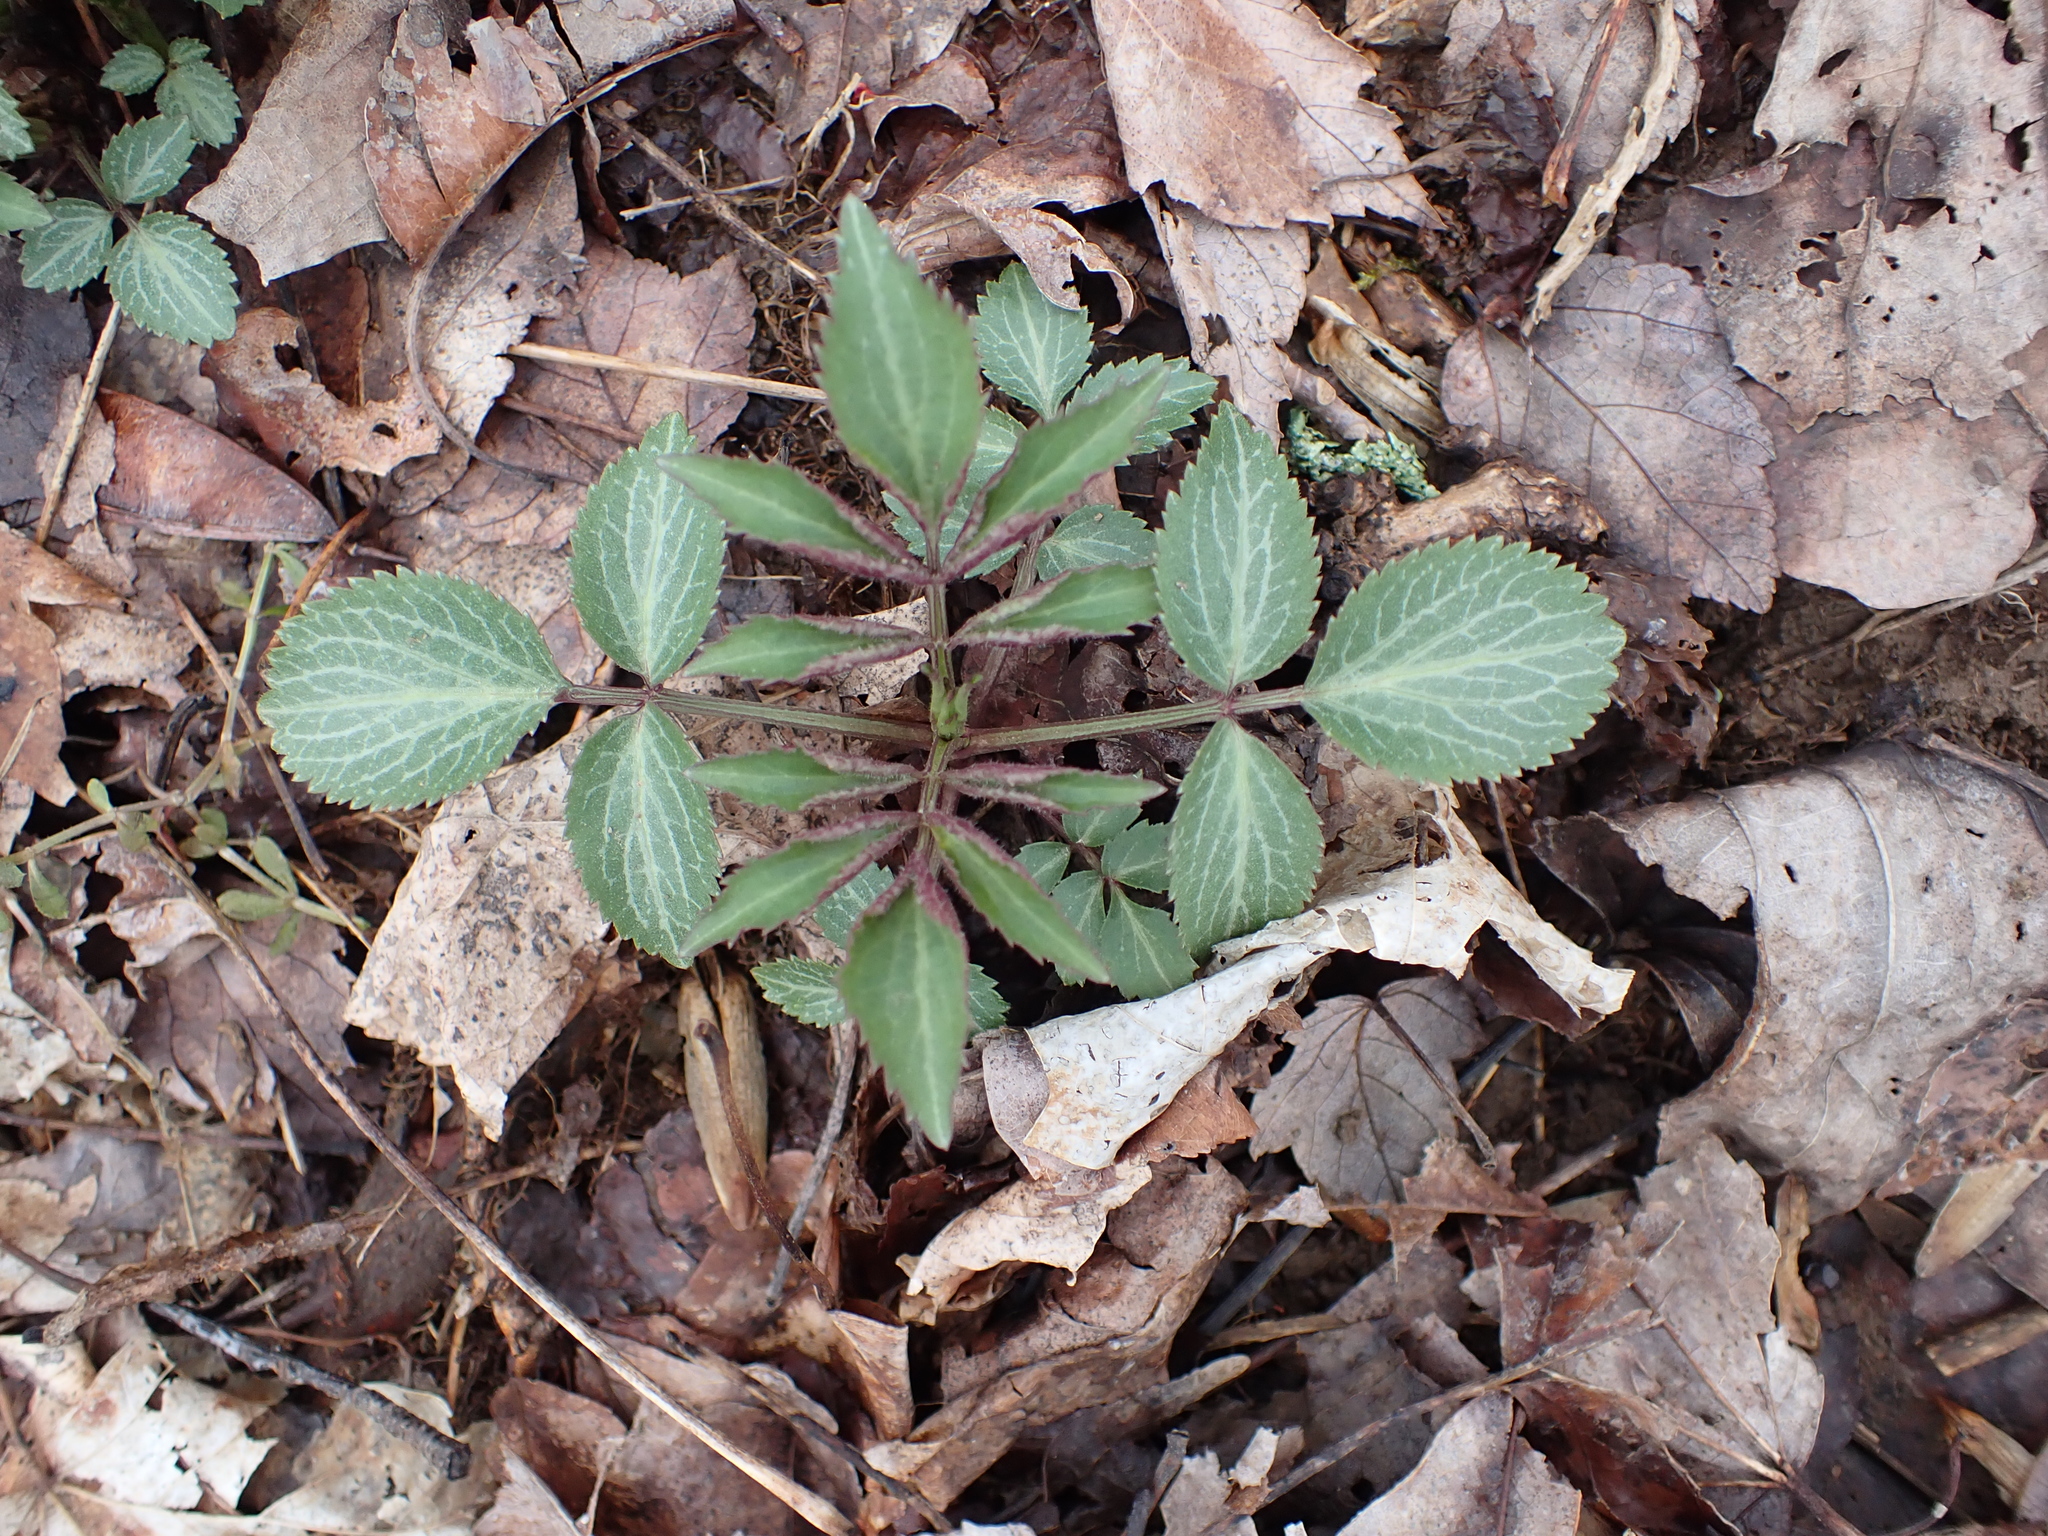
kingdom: Plantae
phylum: Tracheophyta
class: Magnoliopsida
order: Dipsacales
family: Viburnaceae
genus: Sambucus
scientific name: Sambucus canadensis
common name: American elder
